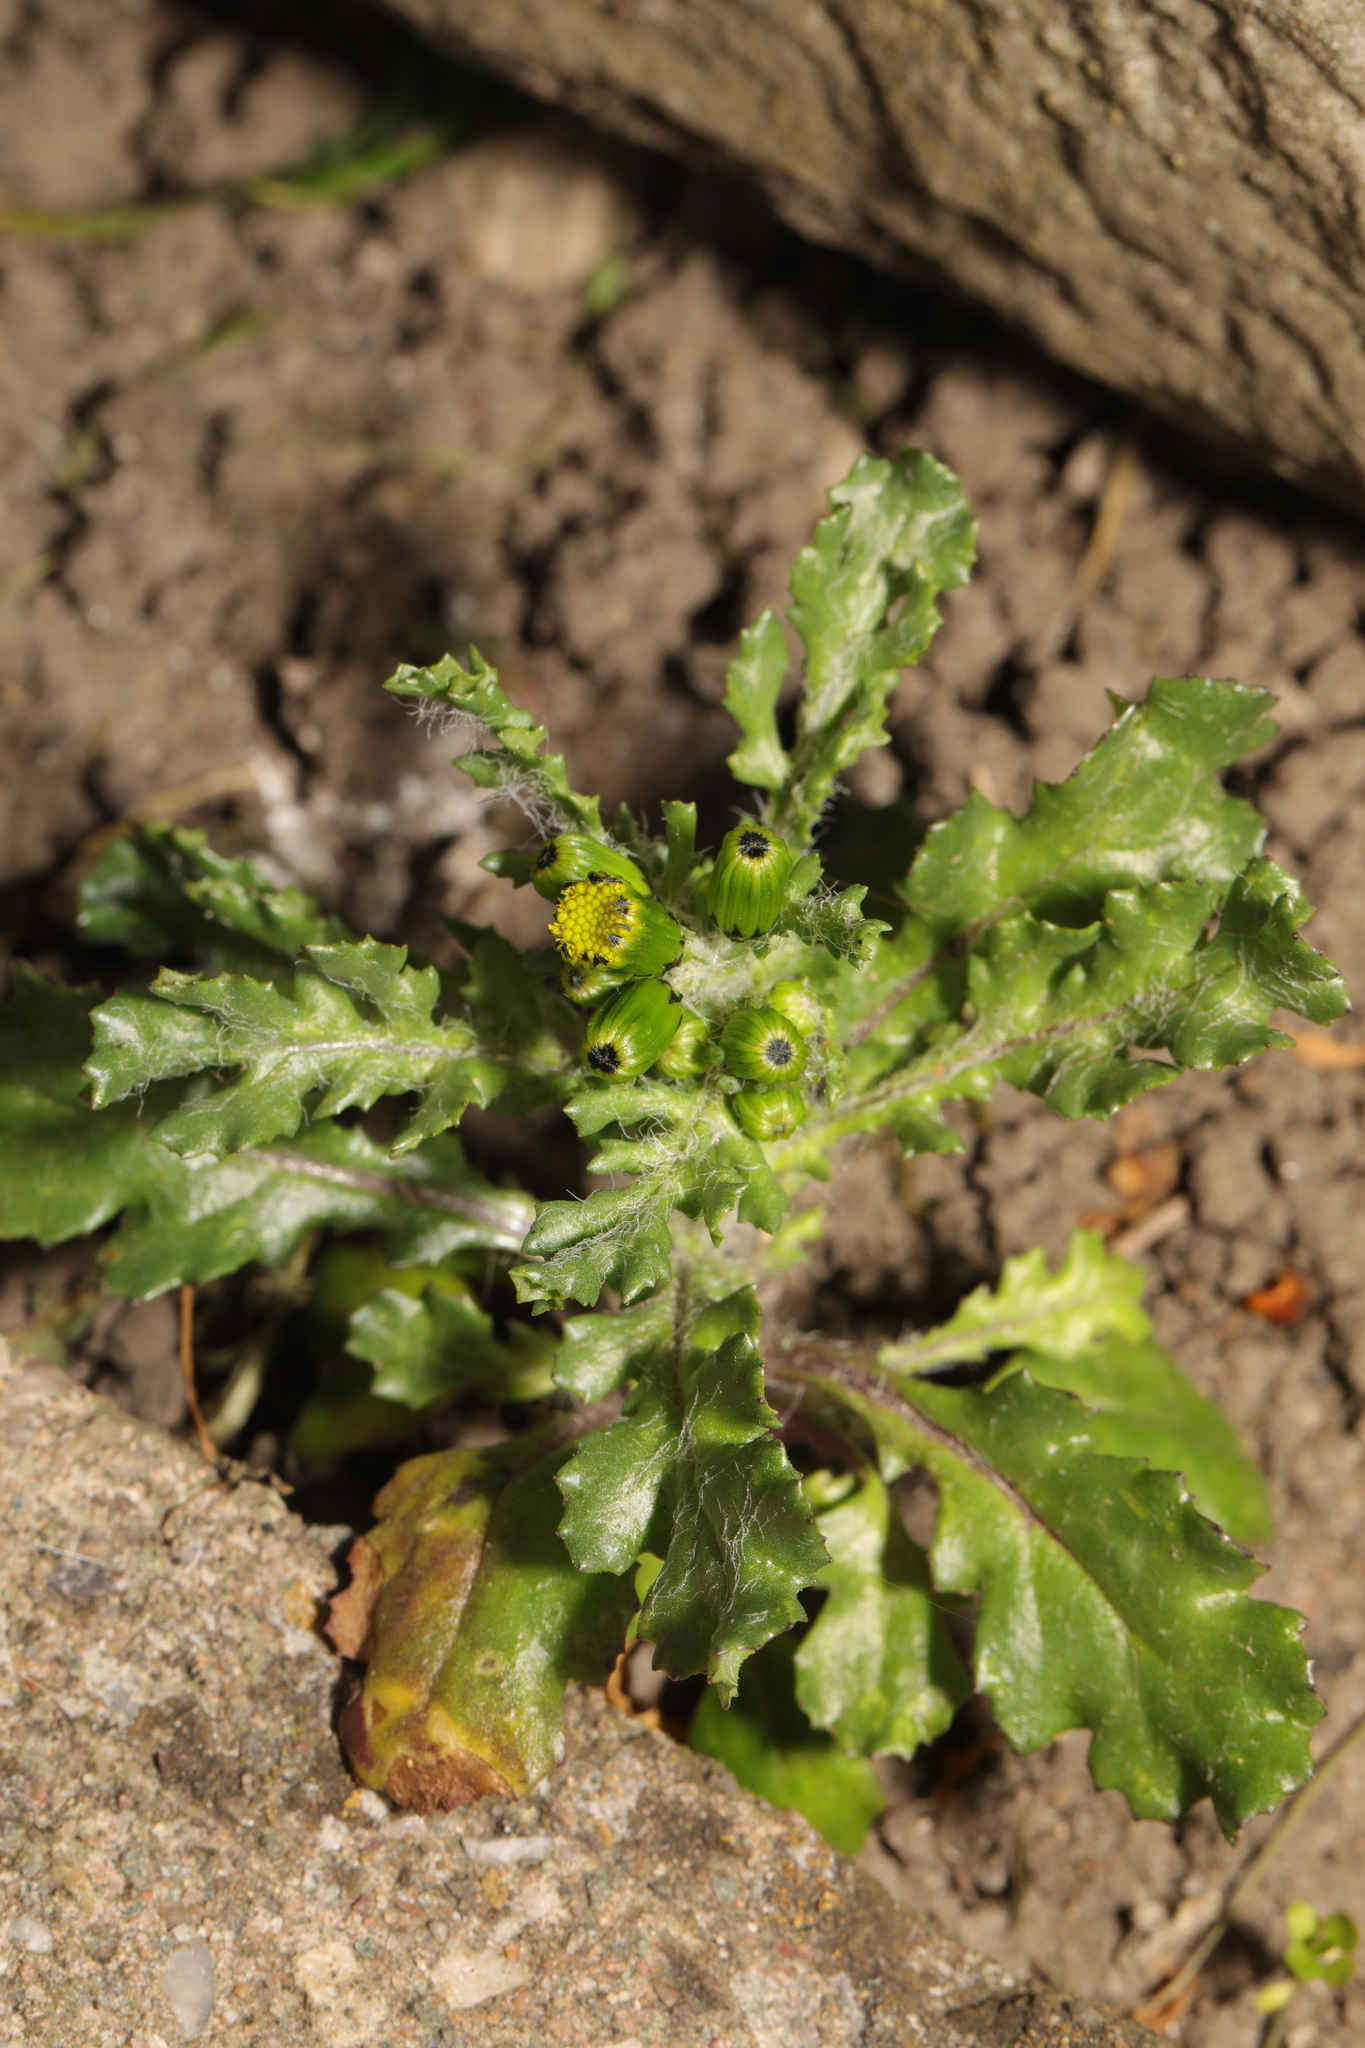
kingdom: Plantae
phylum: Tracheophyta
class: Magnoliopsida
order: Asterales
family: Asteraceae
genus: Senecio
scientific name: Senecio vulgaris
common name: Old-man-in-the-spring
